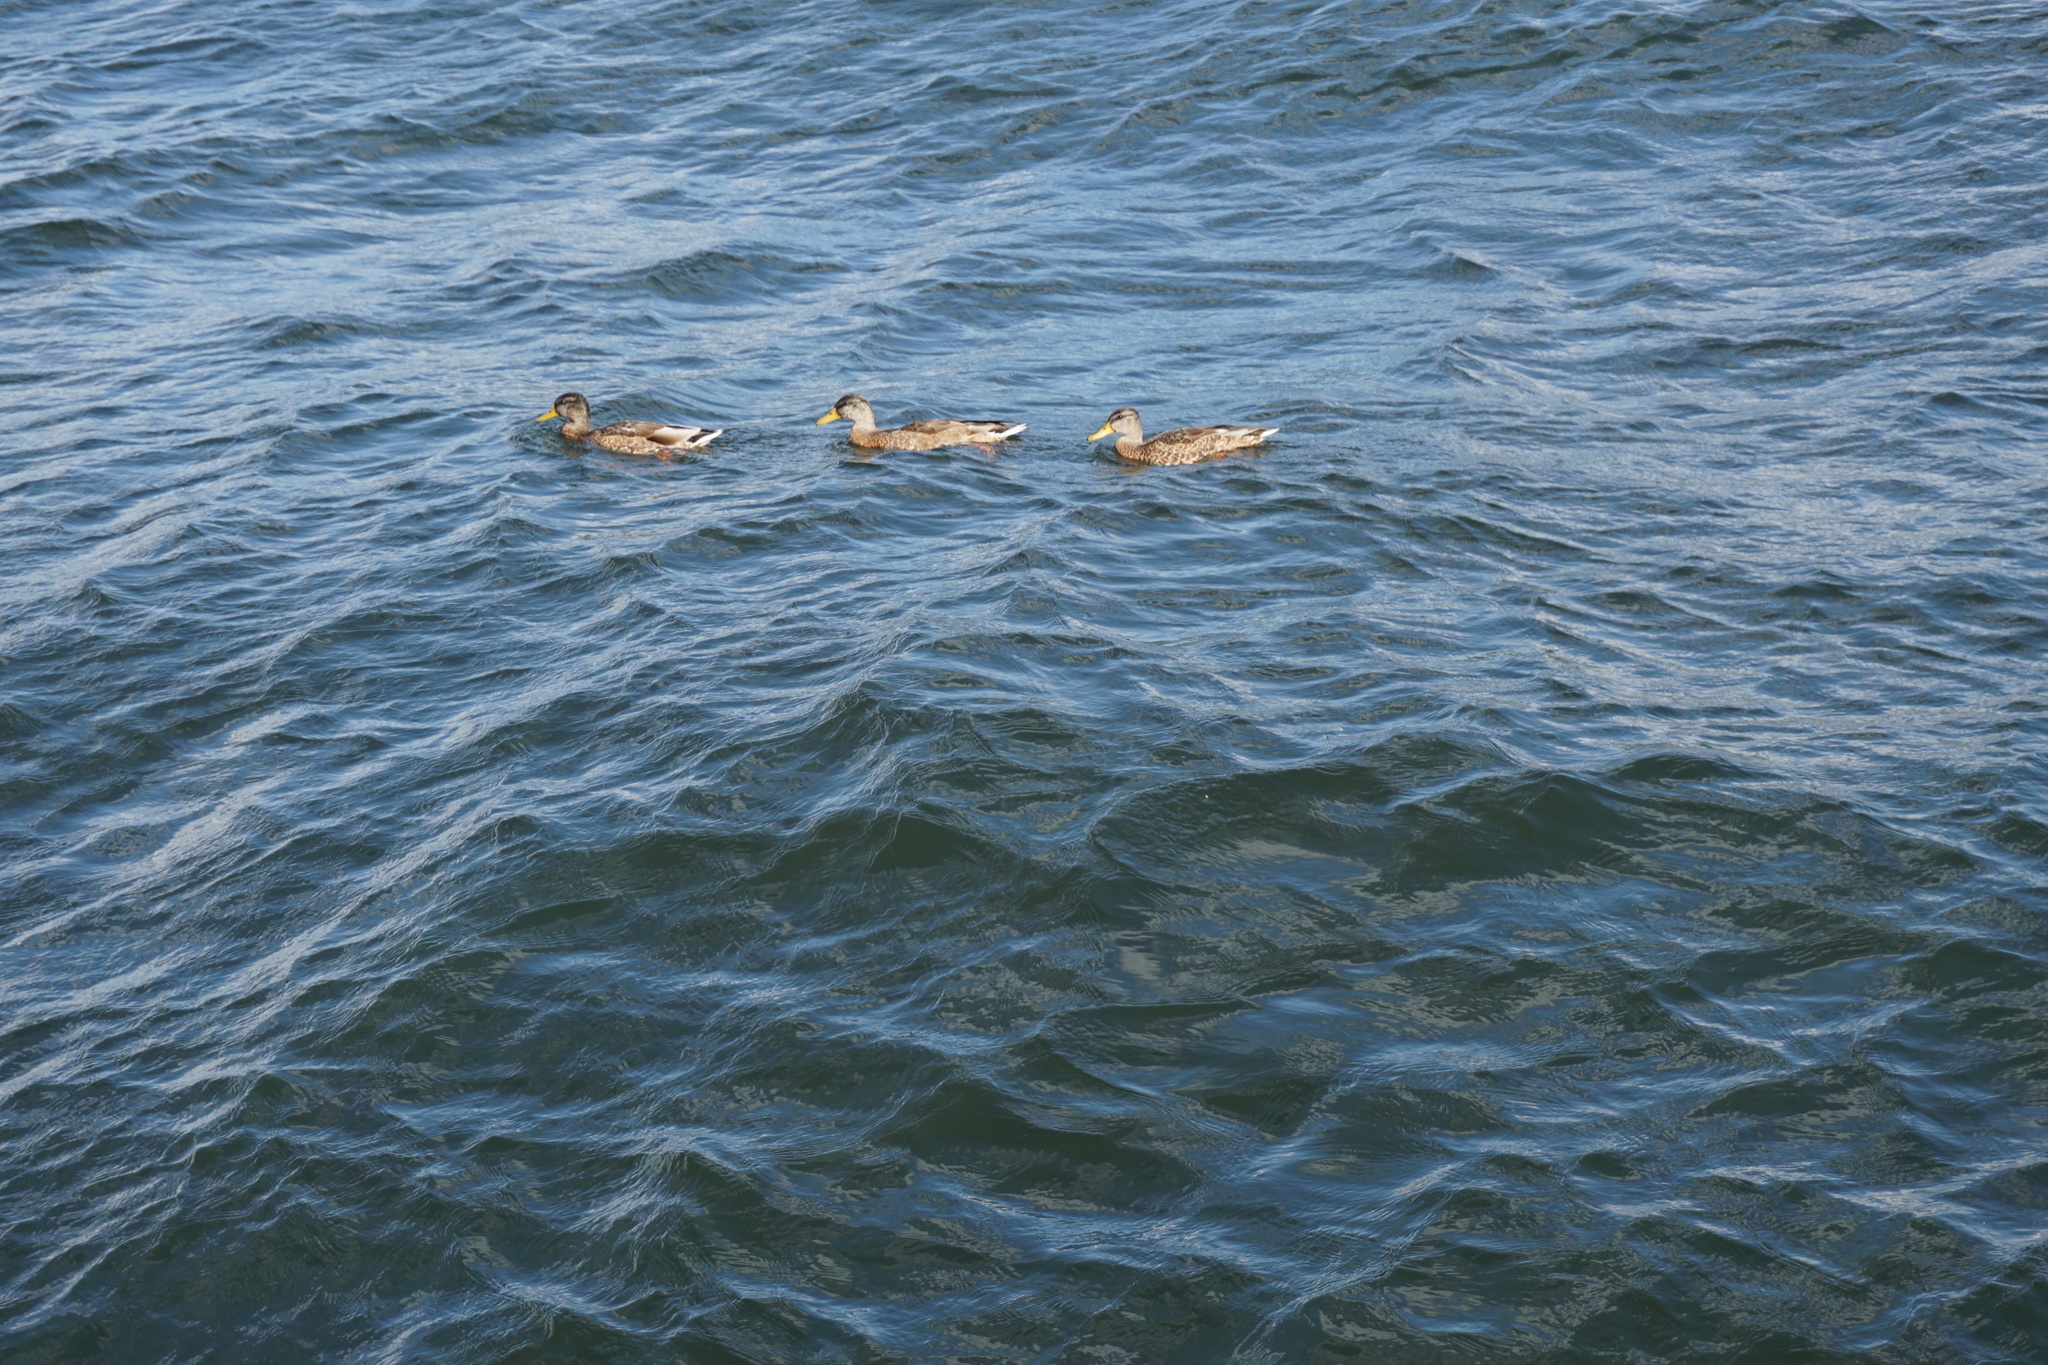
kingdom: Animalia
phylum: Chordata
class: Aves
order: Anseriformes
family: Anatidae
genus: Anas
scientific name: Anas platyrhynchos
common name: Mallard
